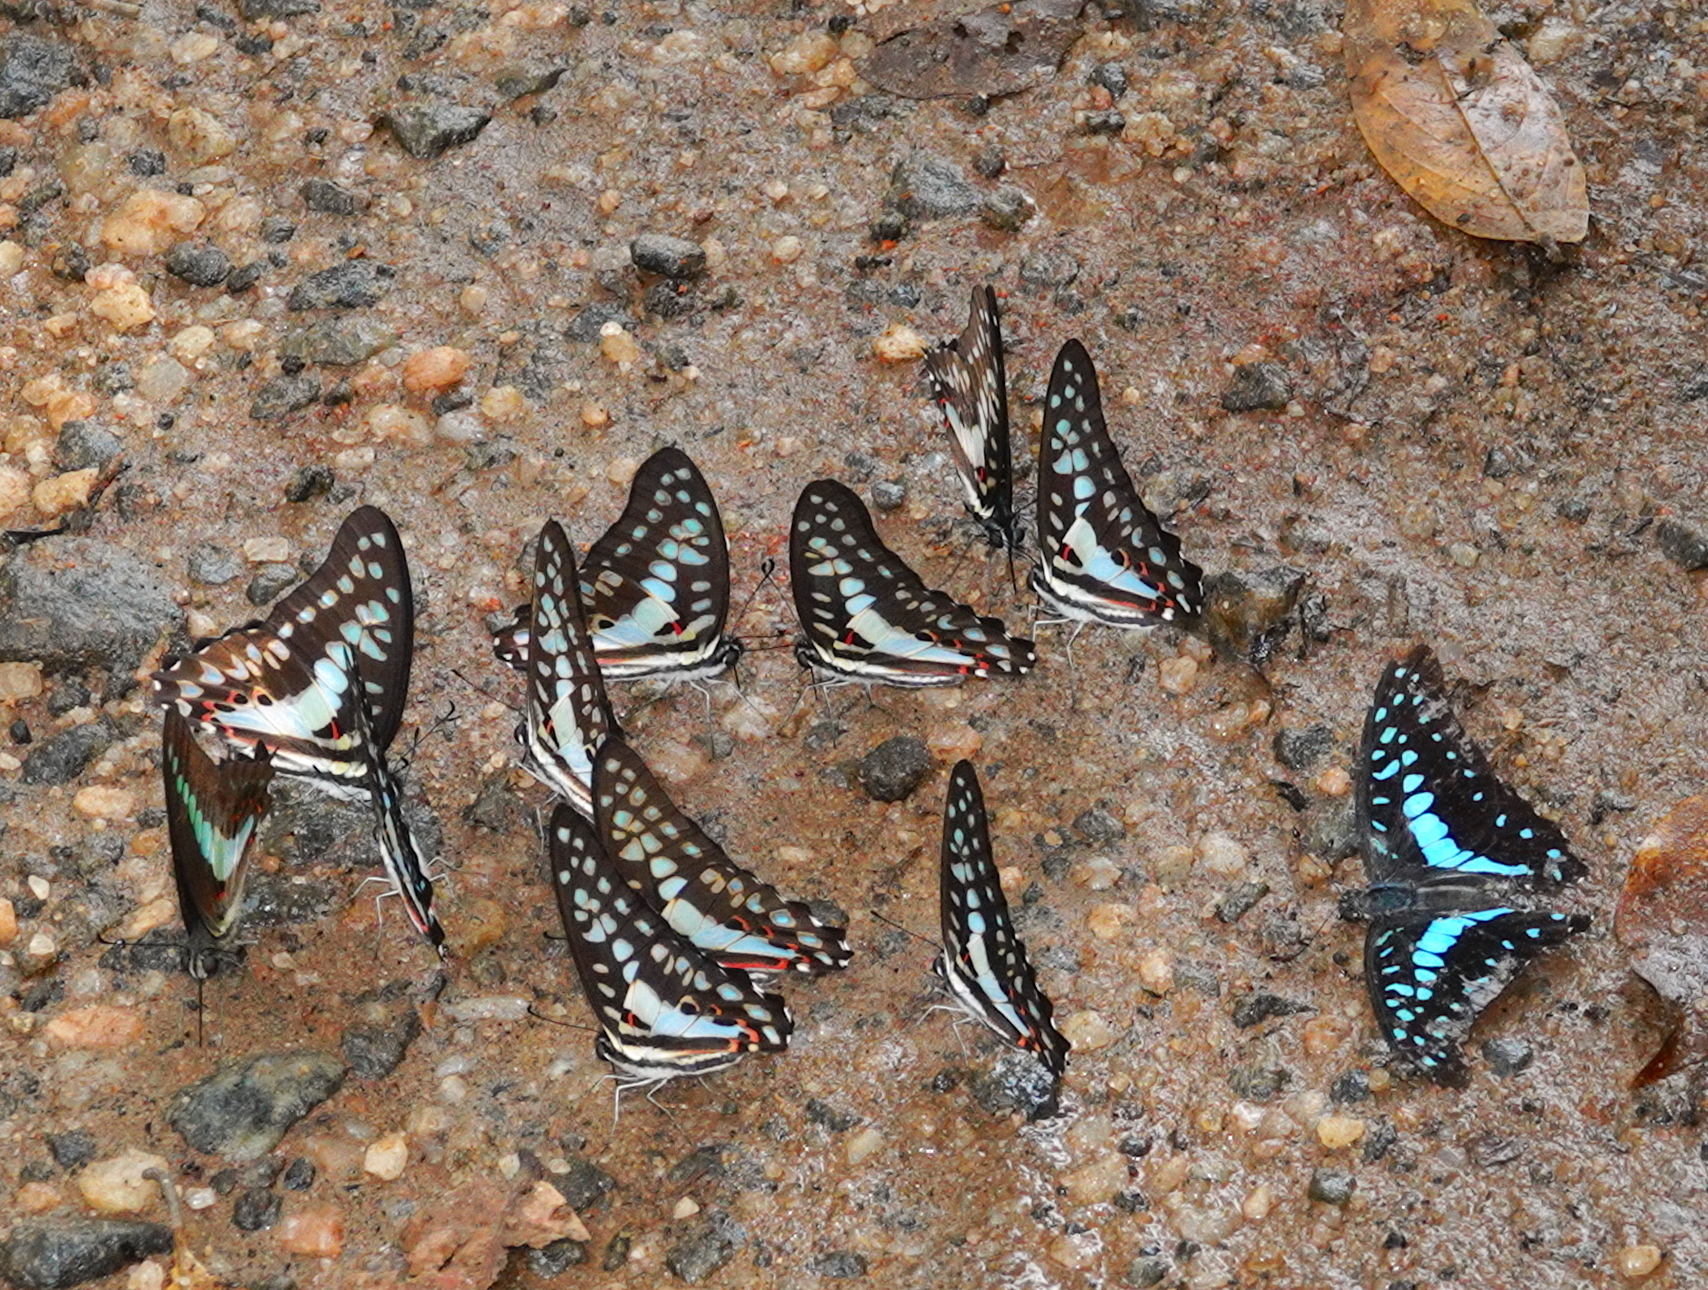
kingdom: Animalia
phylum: Arthropoda
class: Insecta
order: Lepidoptera
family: Papilionidae
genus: Graphium
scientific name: Graphium doson
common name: Common jay
